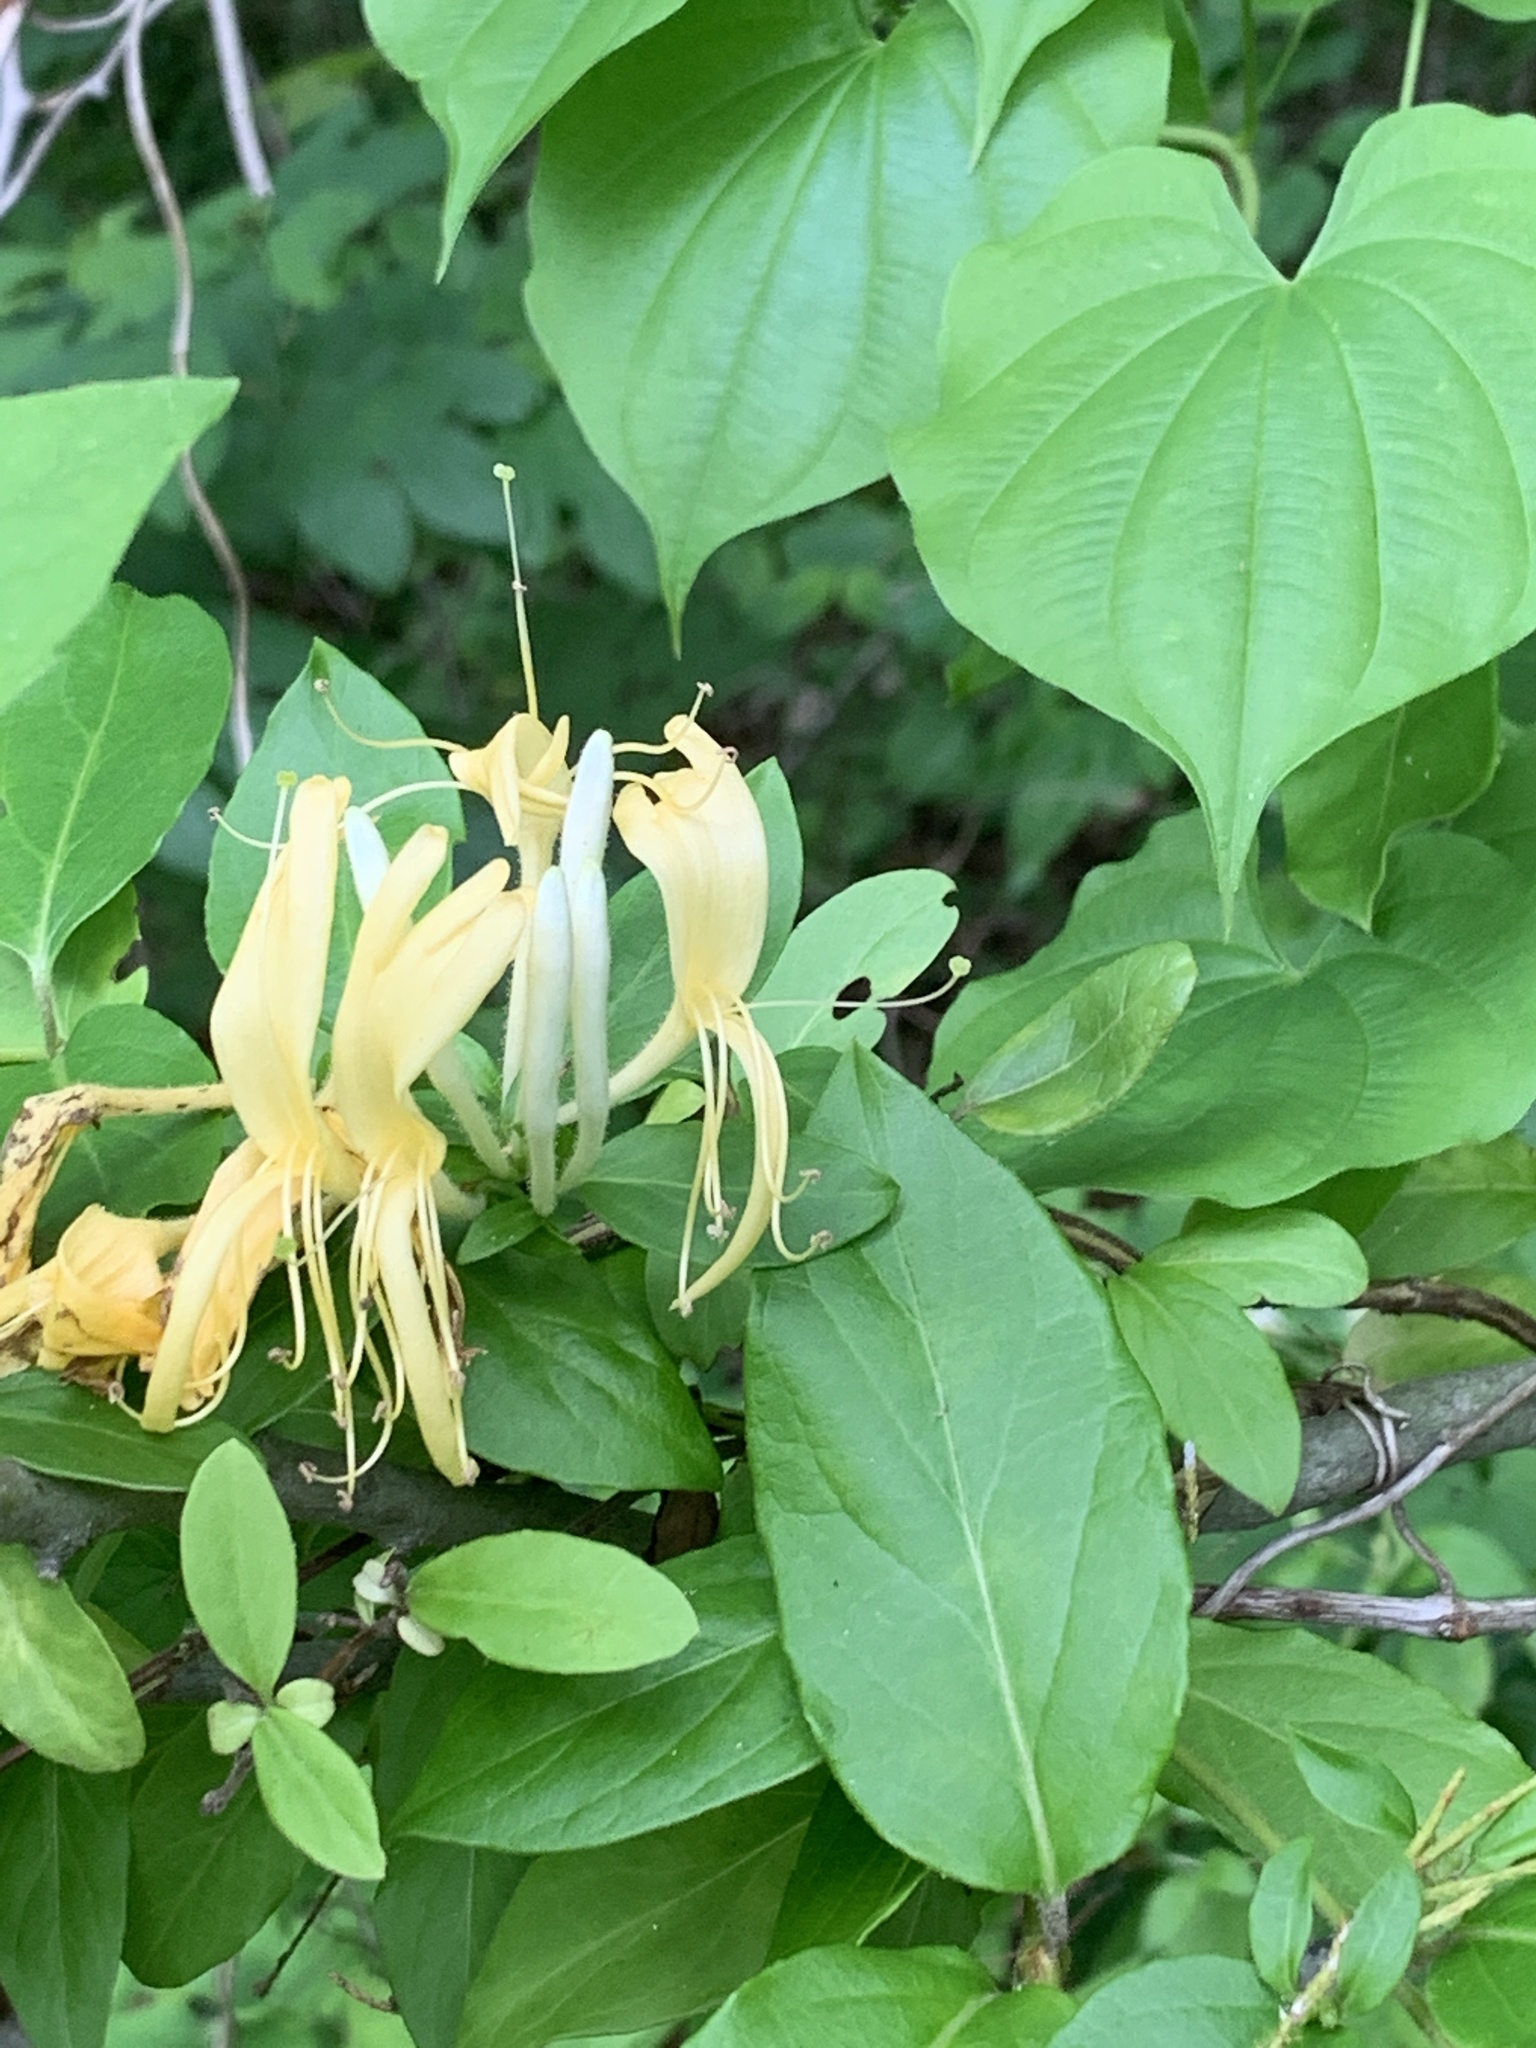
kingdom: Plantae
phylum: Tracheophyta
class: Magnoliopsida
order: Dipsacales
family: Caprifoliaceae
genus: Lonicera
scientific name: Lonicera japonica
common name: Japanese honeysuckle
